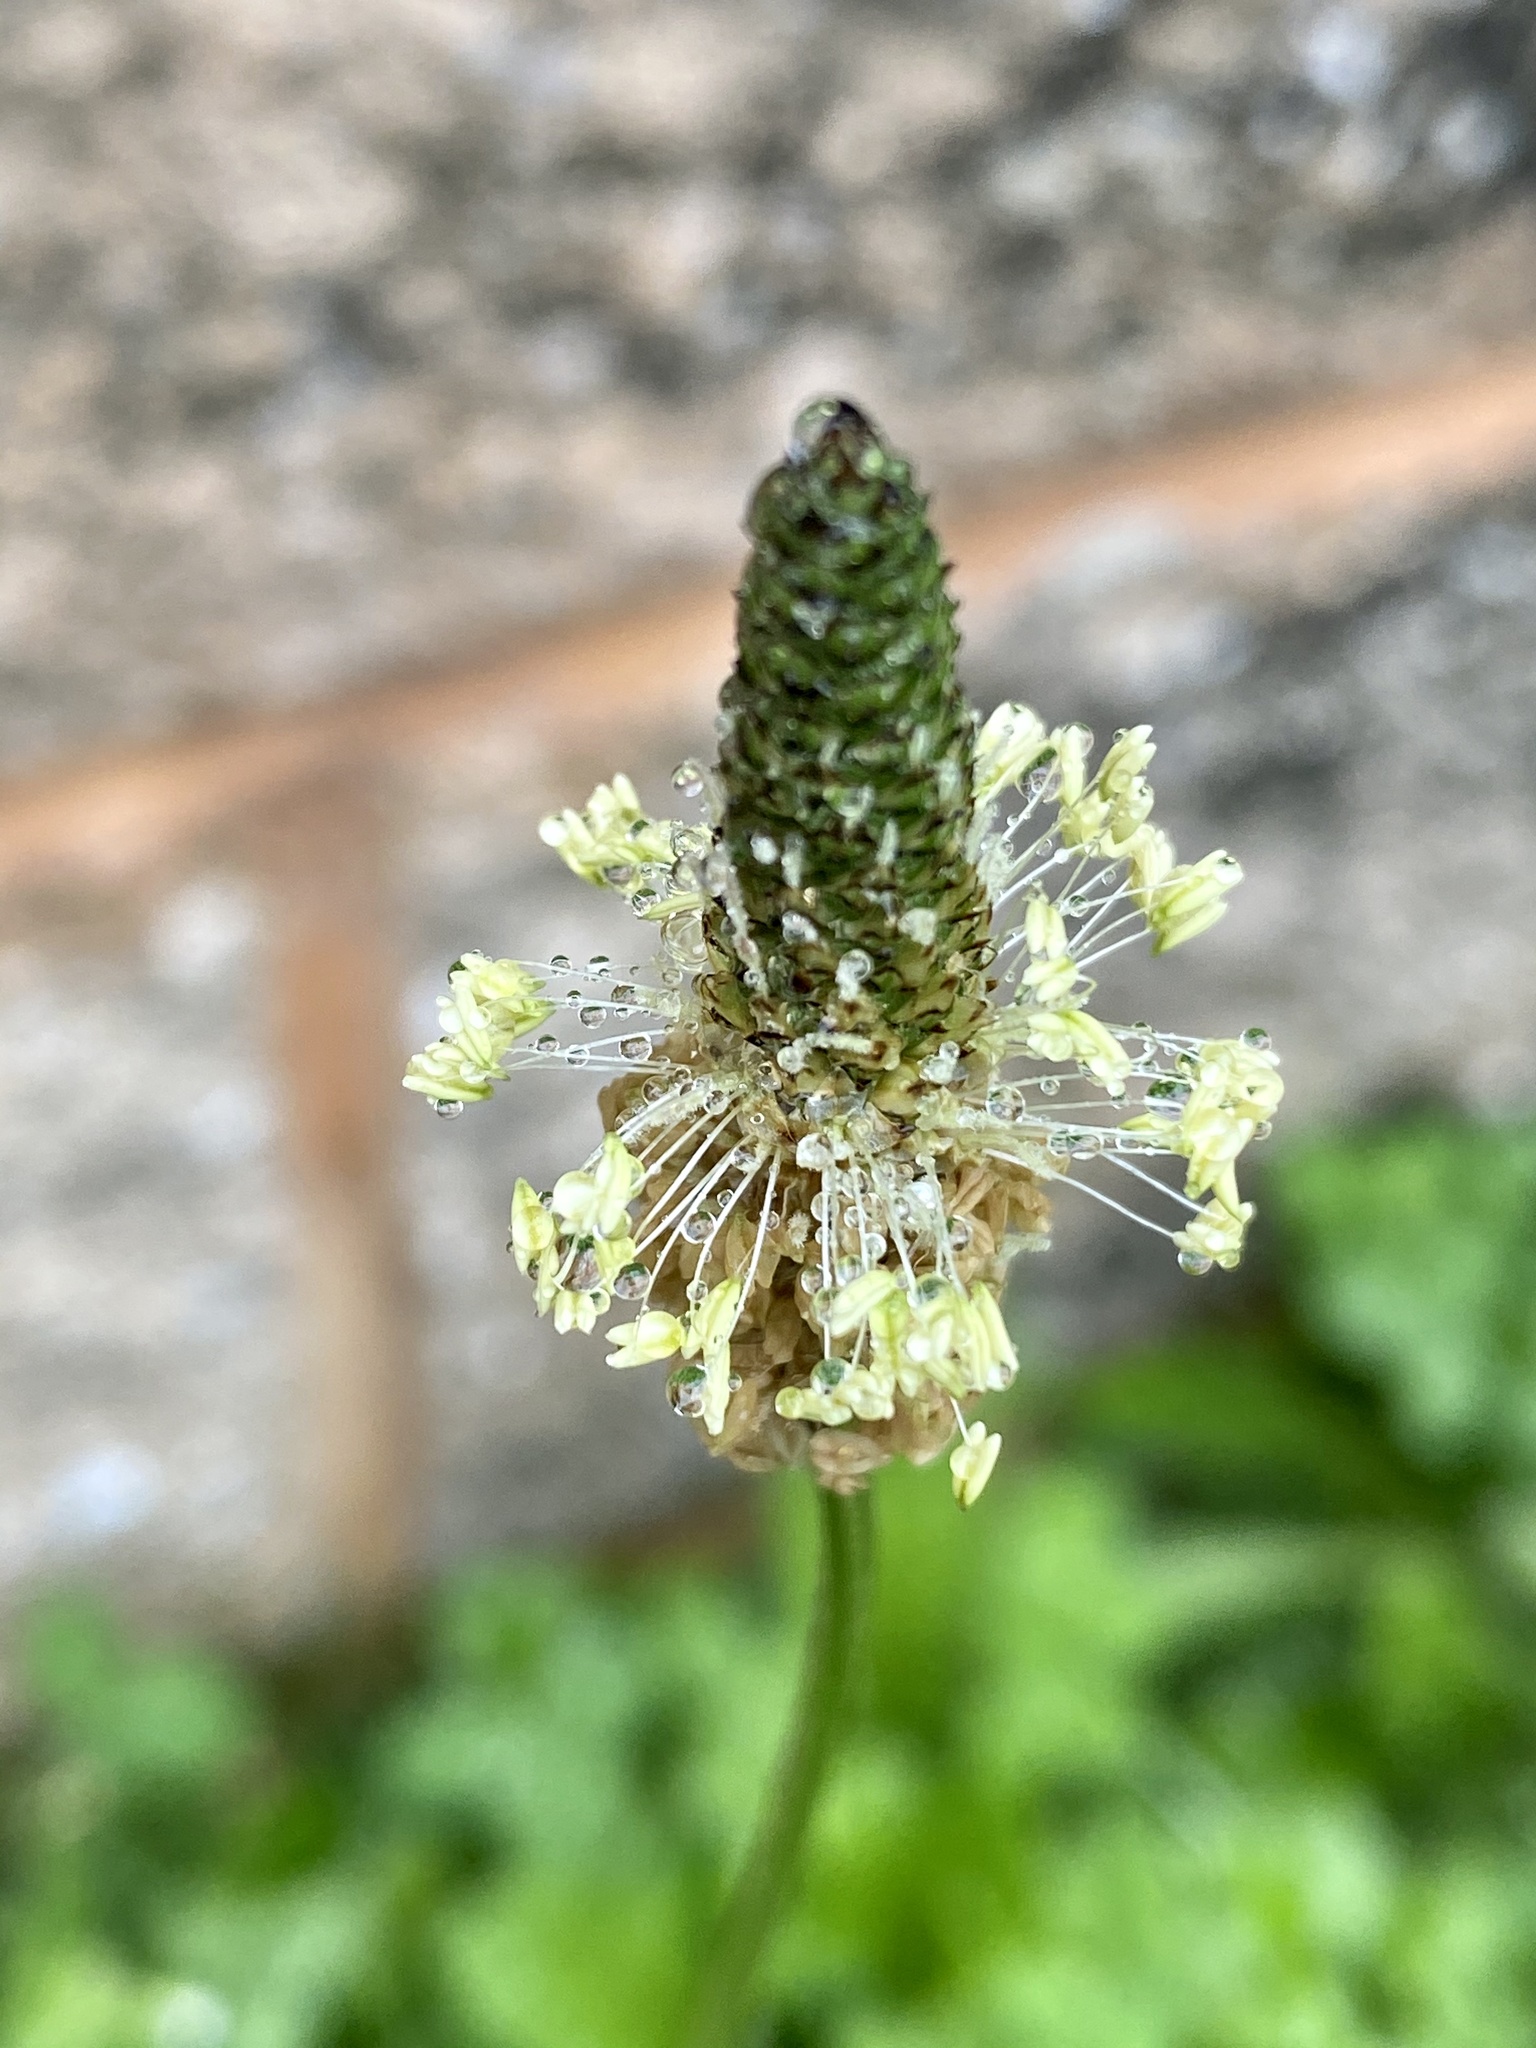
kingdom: Plantae
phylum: Tracheophyta
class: Magnoliopsida
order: Lamiales
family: Plantaginaceae
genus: Plantago
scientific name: Plantago lanceolata
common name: Ribwort plantain
